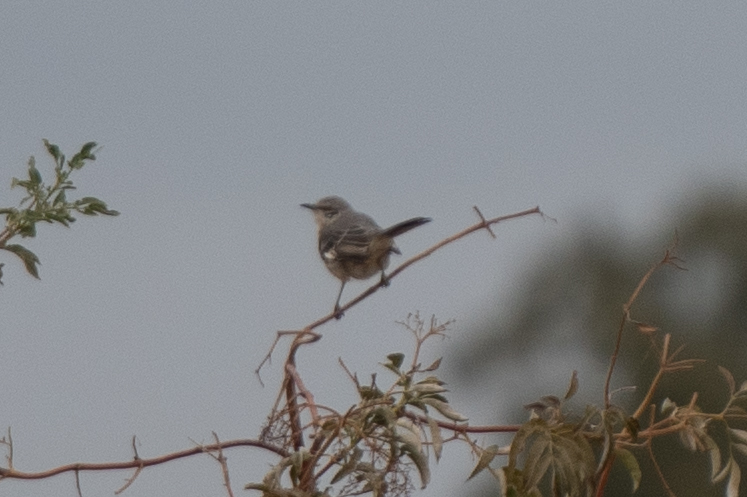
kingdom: Animalia
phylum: Chordata
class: Aves
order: Passeriformes
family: Mimidae
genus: Mimus
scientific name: Mimus polyglottos
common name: Northern mockingbird
